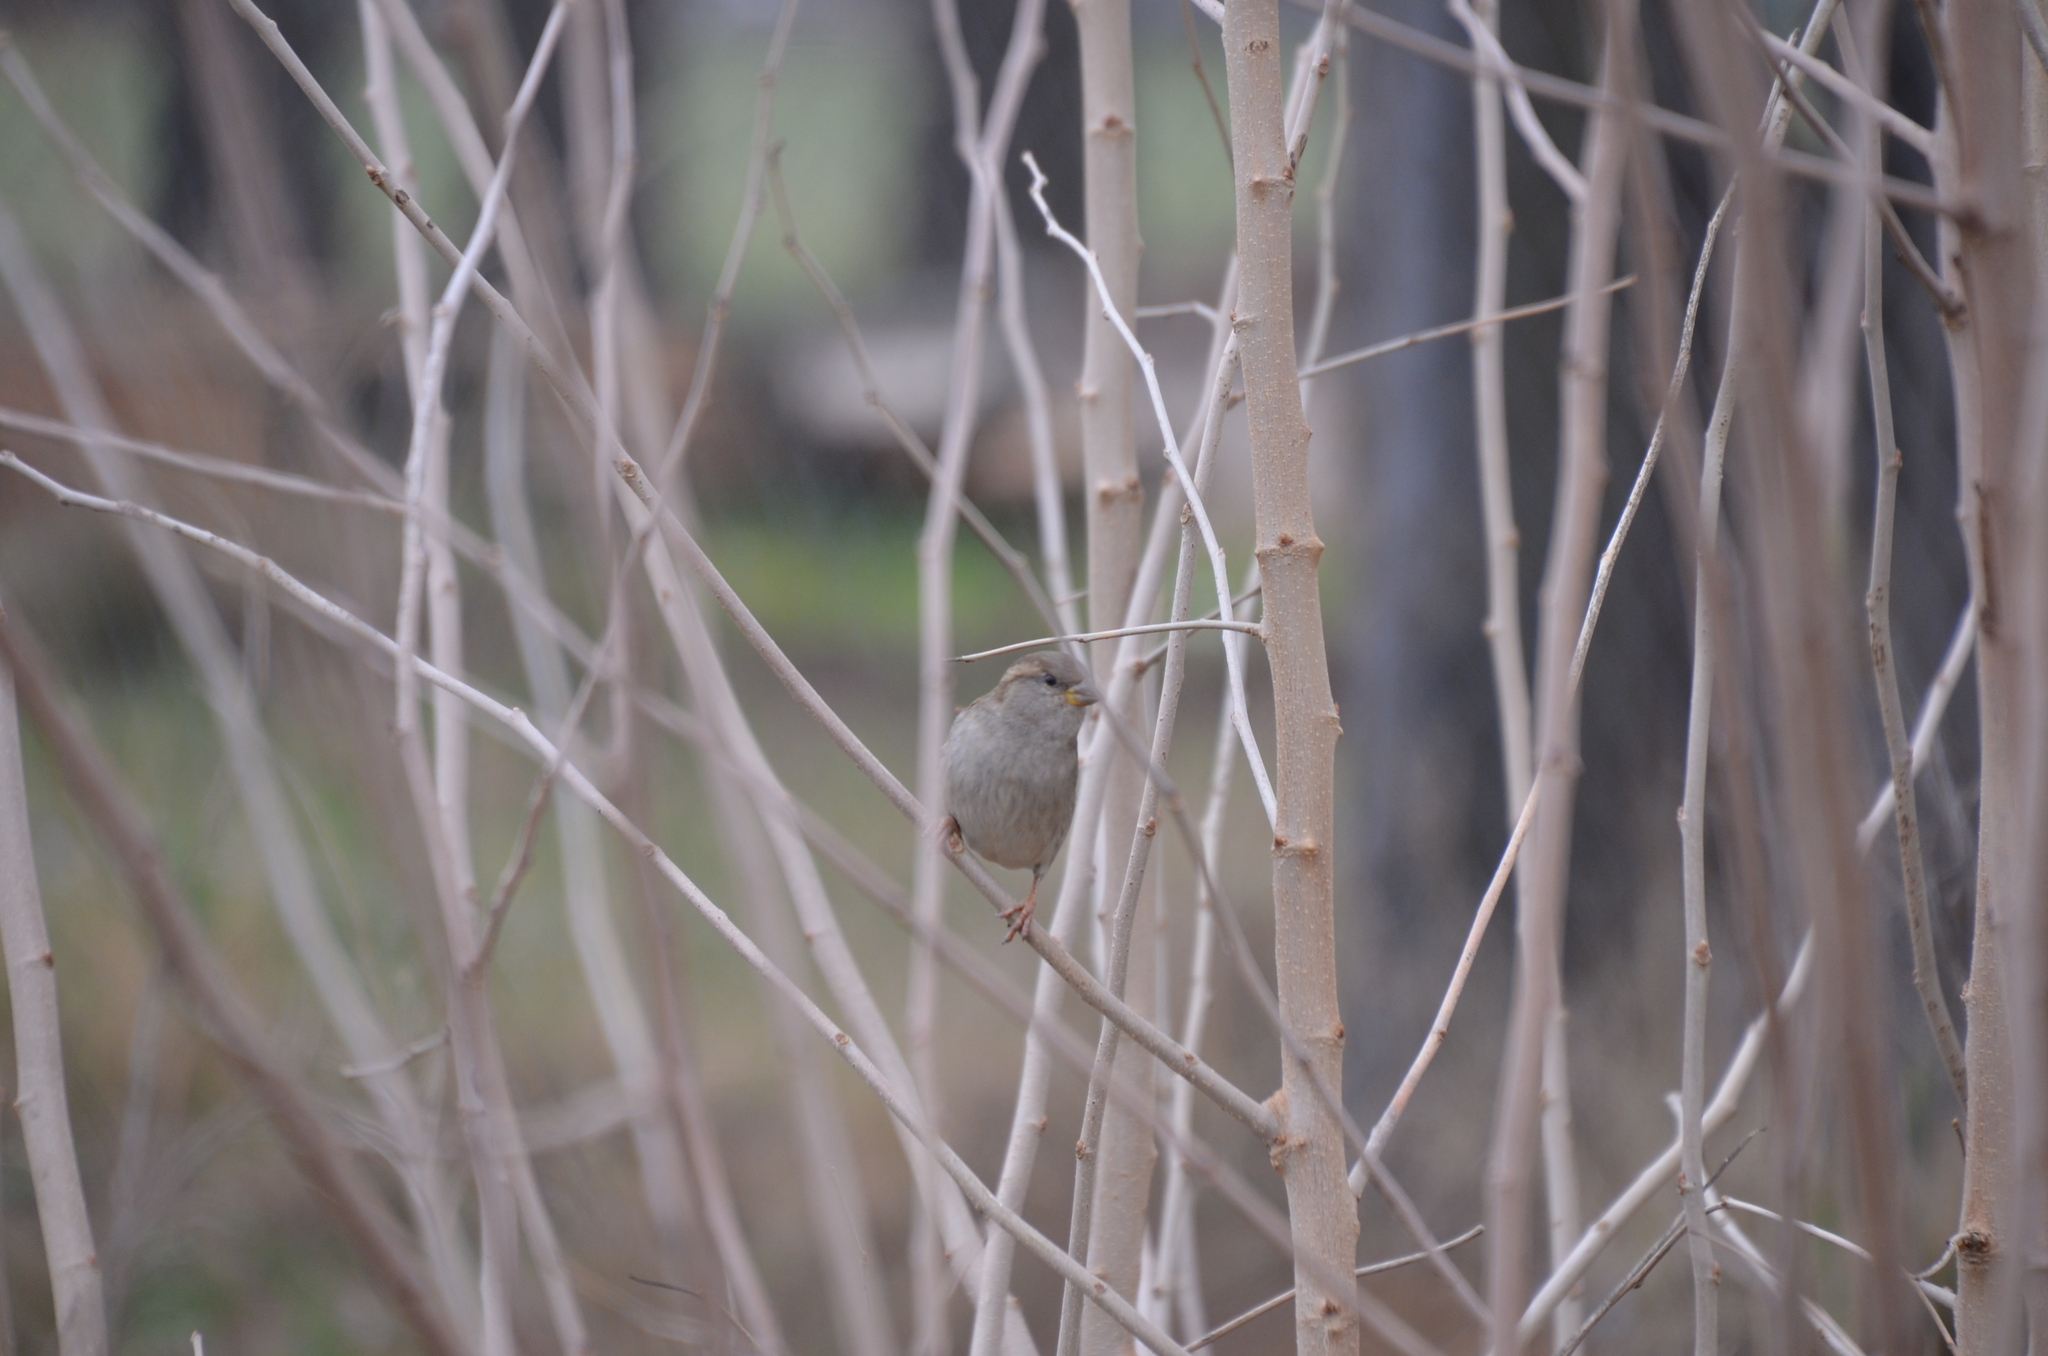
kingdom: Animalia
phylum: Chordata
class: Aves
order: Passeriformes
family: Passeridae
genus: Passer
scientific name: Passer domesticus
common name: House sparrow
